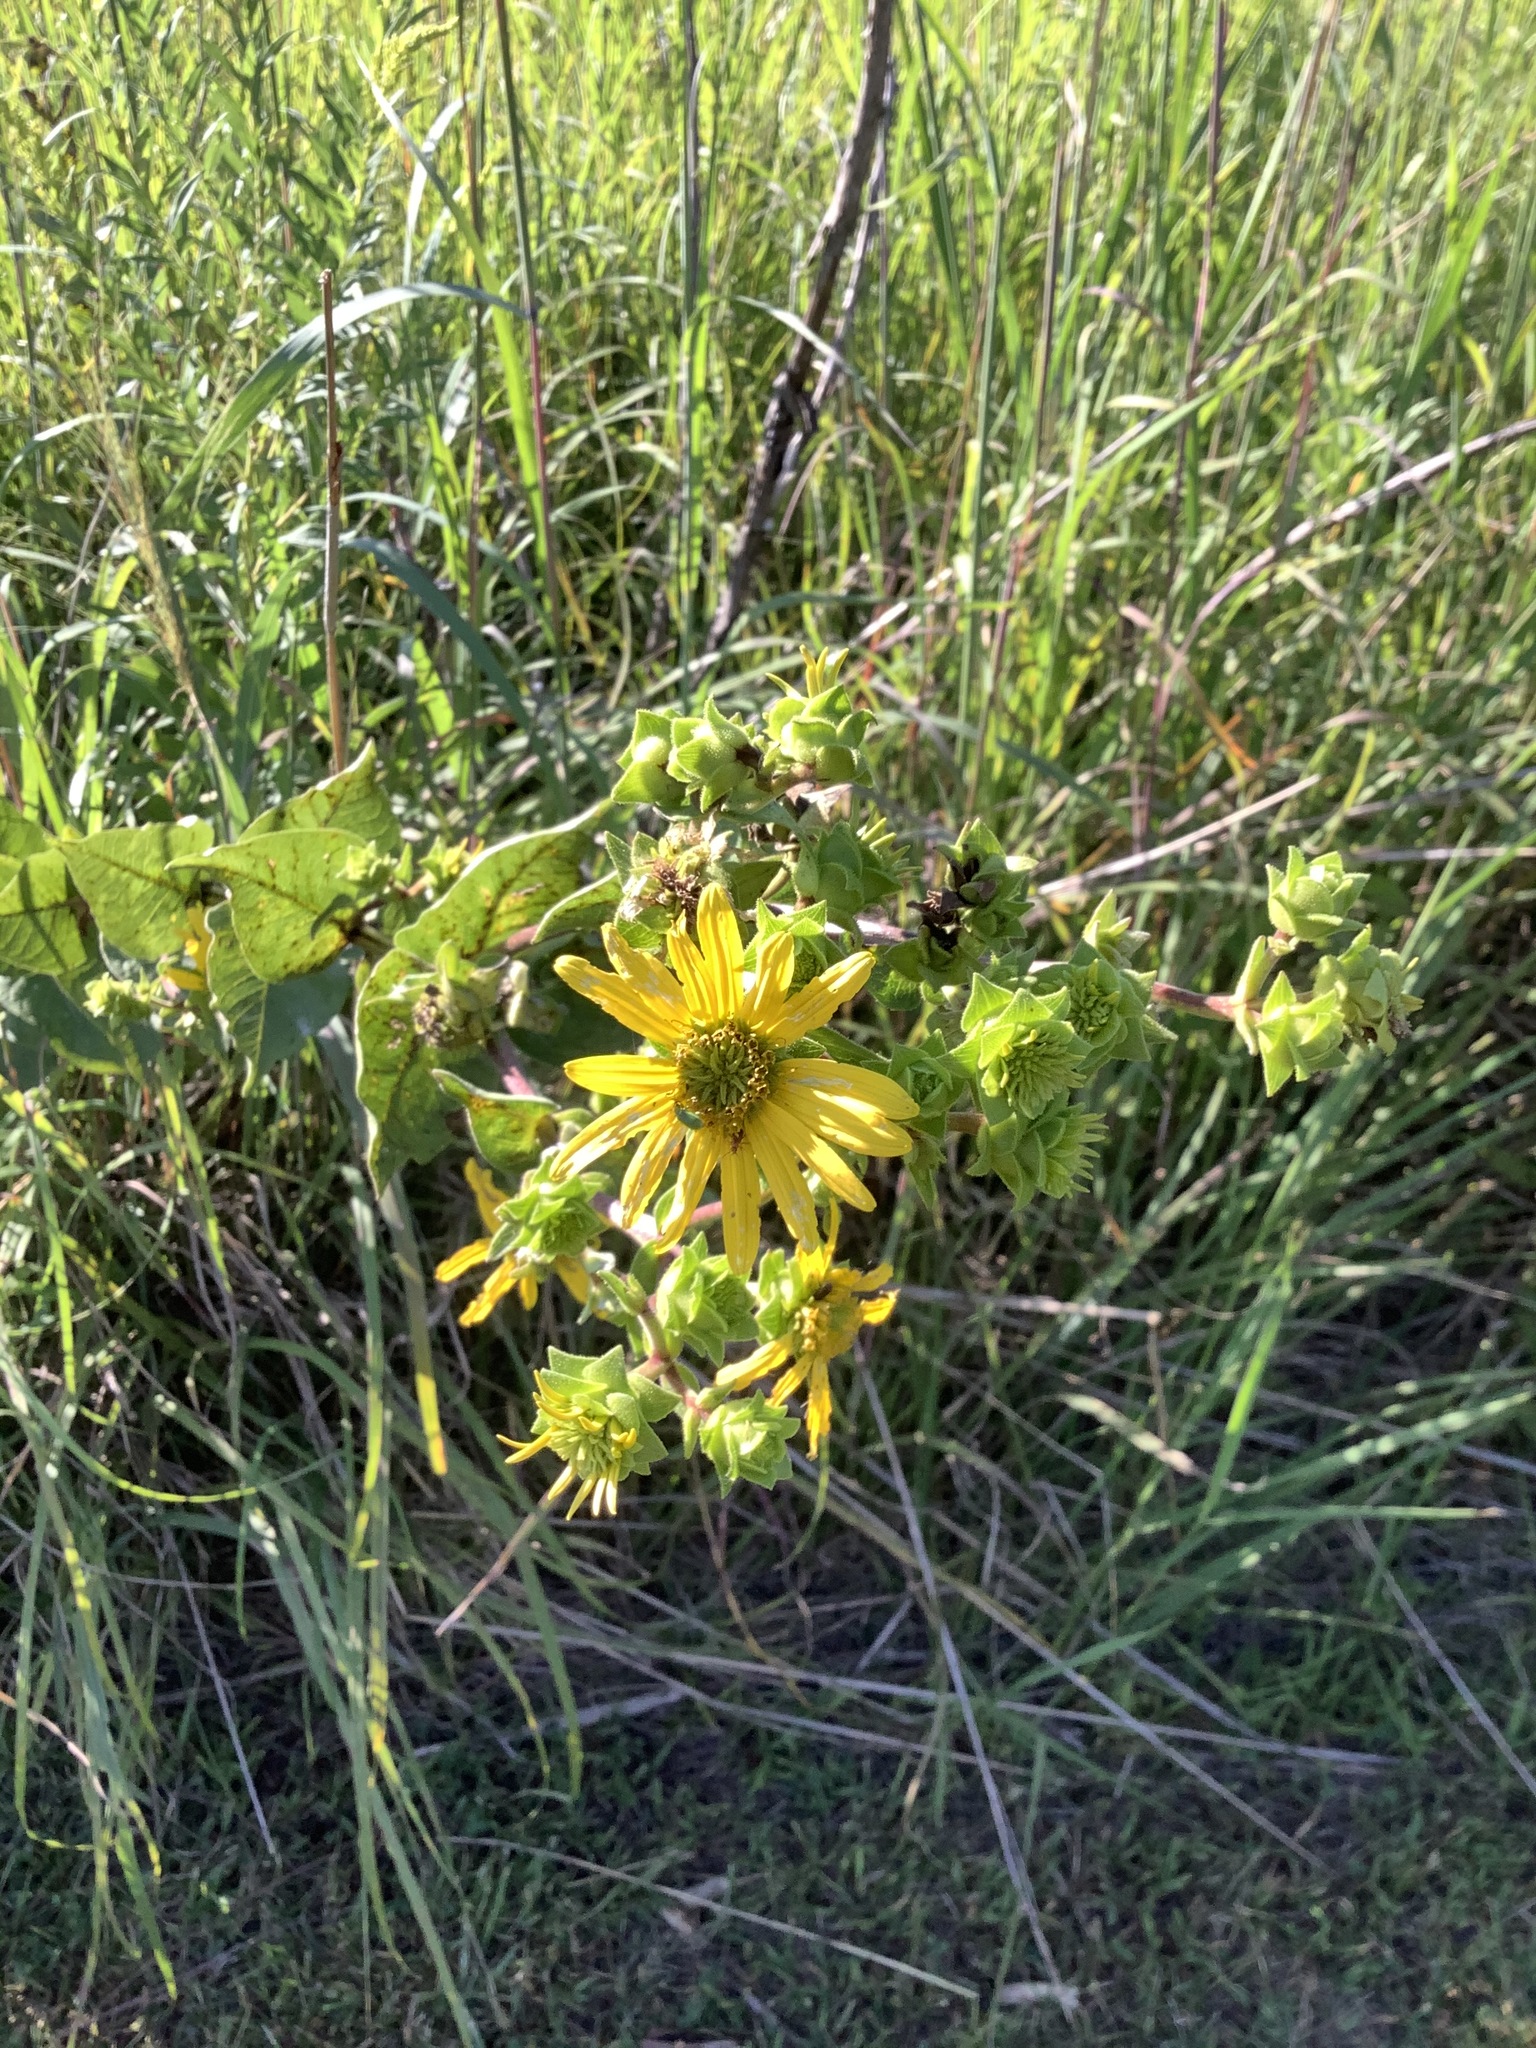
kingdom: Plantae
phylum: Tracheophyta
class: Magnoliopsida
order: Asterales
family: Asteraceae
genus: Silphium
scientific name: Silphium integrifolium
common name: Whole-leaf rosinweed
